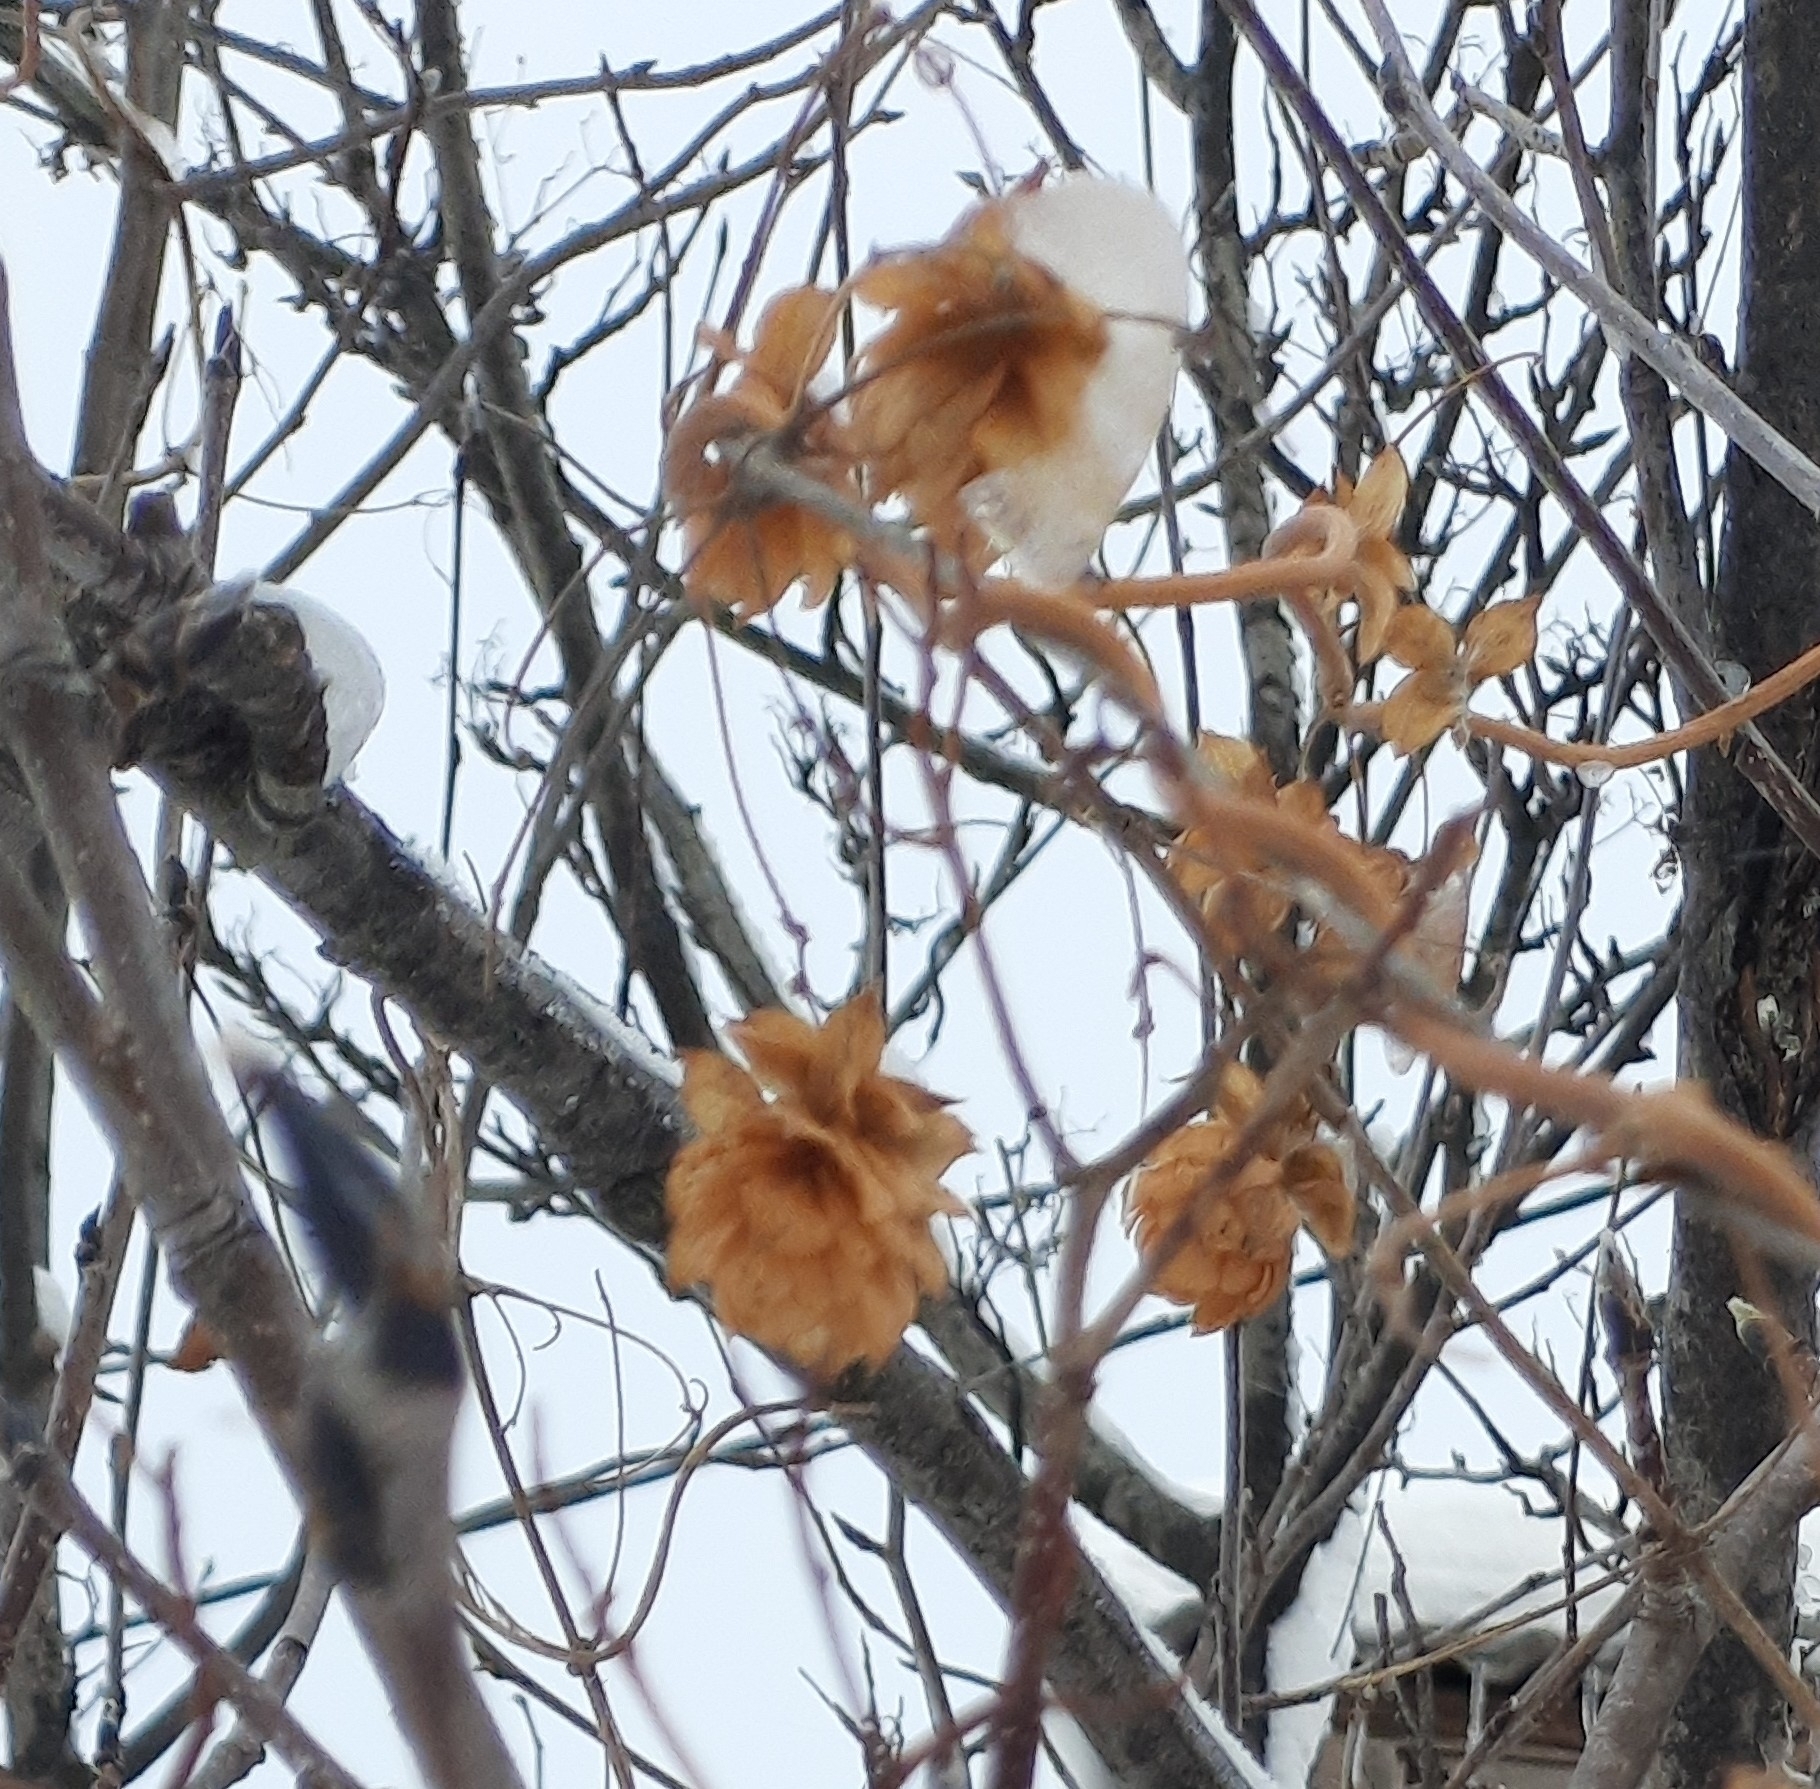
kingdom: Plantae
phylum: Tracheophyta
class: Magnoliopsida
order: Rosales
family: Cannabaceae
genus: Humulus
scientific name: Humulus lupulus
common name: Hop
